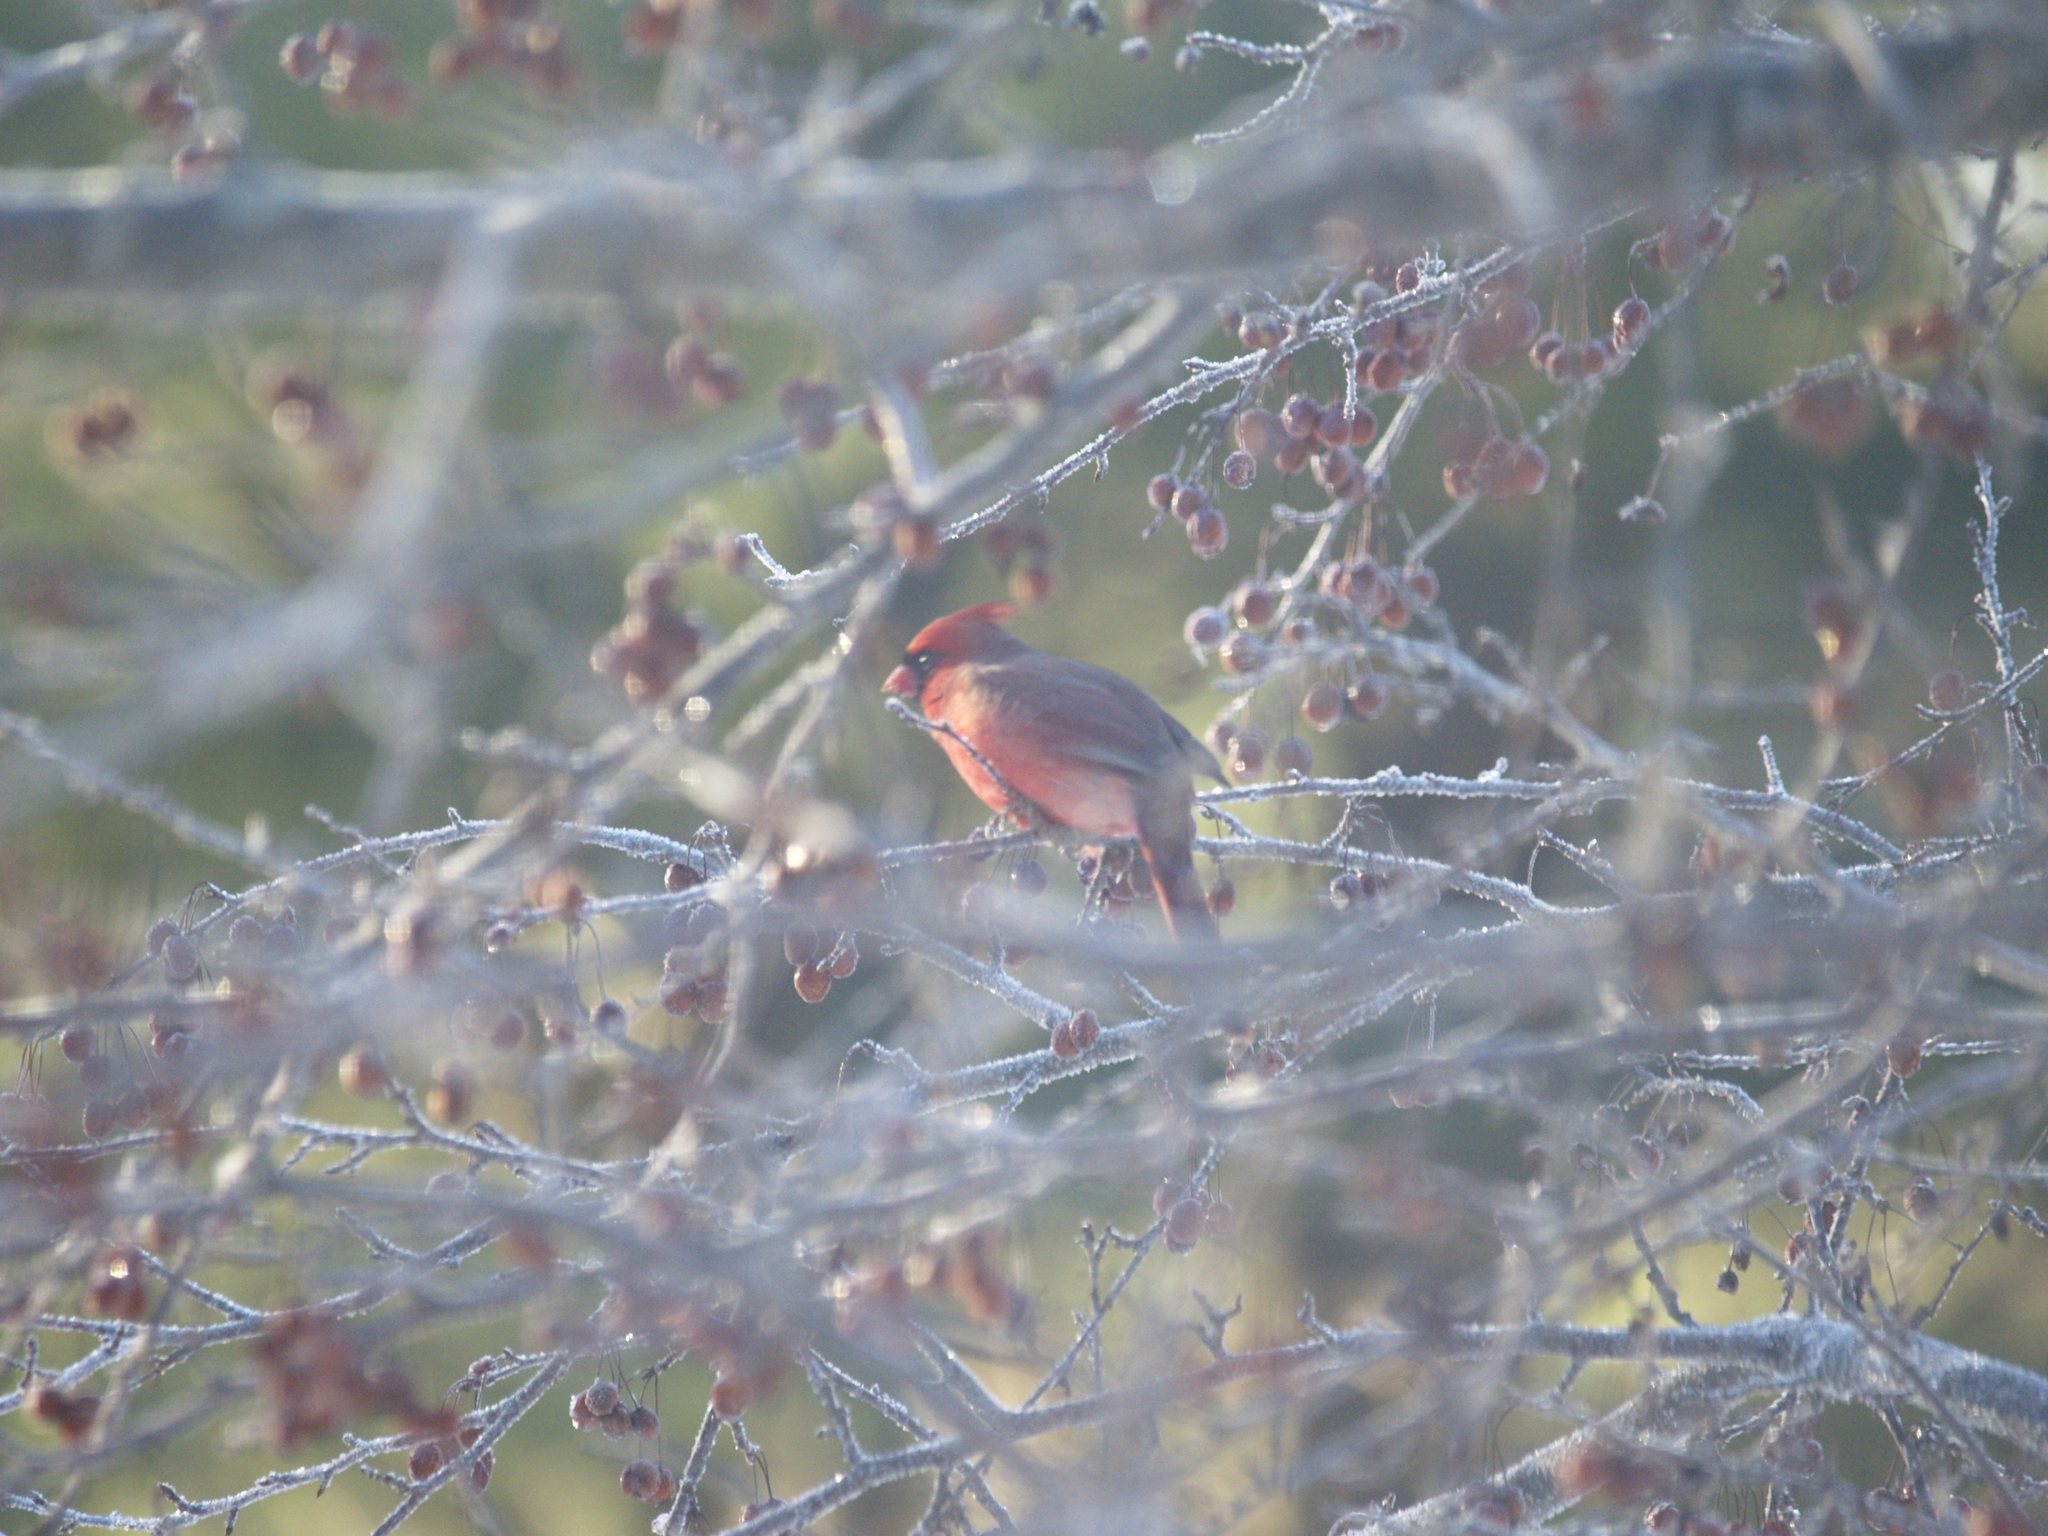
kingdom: Animalia
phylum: Chordata
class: Aves
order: Passeriformes
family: Cardinalidae
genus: Cardinalis
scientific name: Cardinalis cardinalis
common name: Northern cardinal
